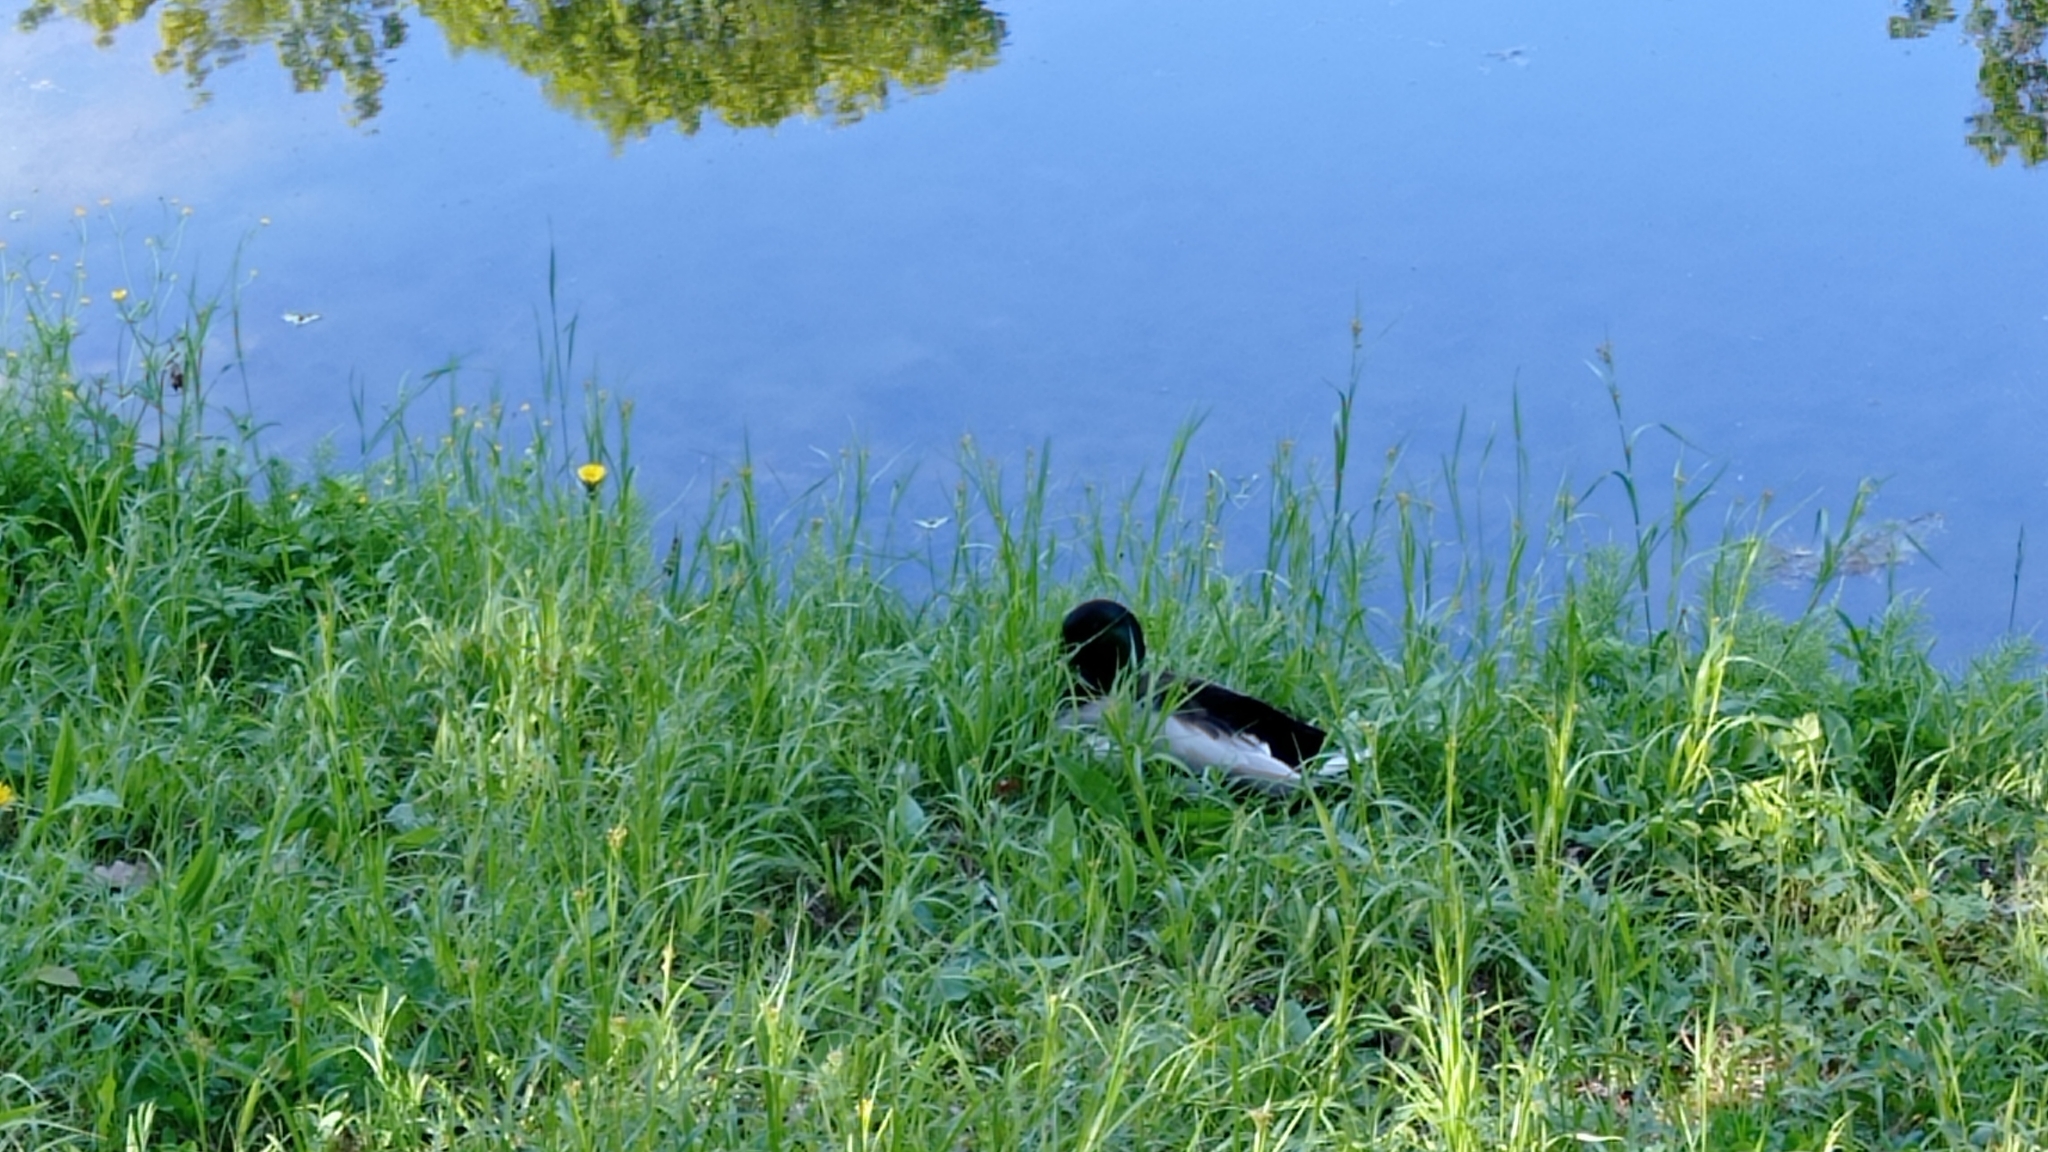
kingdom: Animalia
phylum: Chordata
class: Aves
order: Anseriformes
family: Anatidae
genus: Anas
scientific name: Anas platyrhynchos
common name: Mallard
